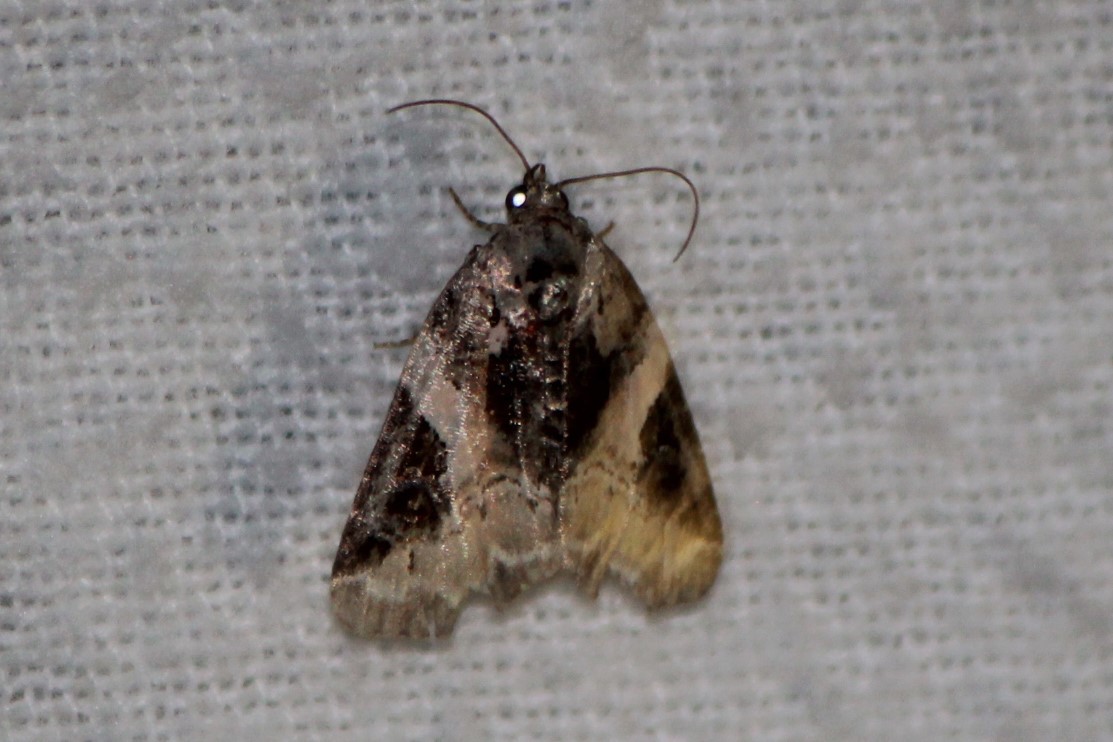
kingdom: Animalia
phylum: Arthropoda
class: Insecta
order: Lepidoptera
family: Noctuidae
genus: Pseudeustrotia
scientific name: Pseudeustrotia carneola
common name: Pink-barred lithacodia moth
